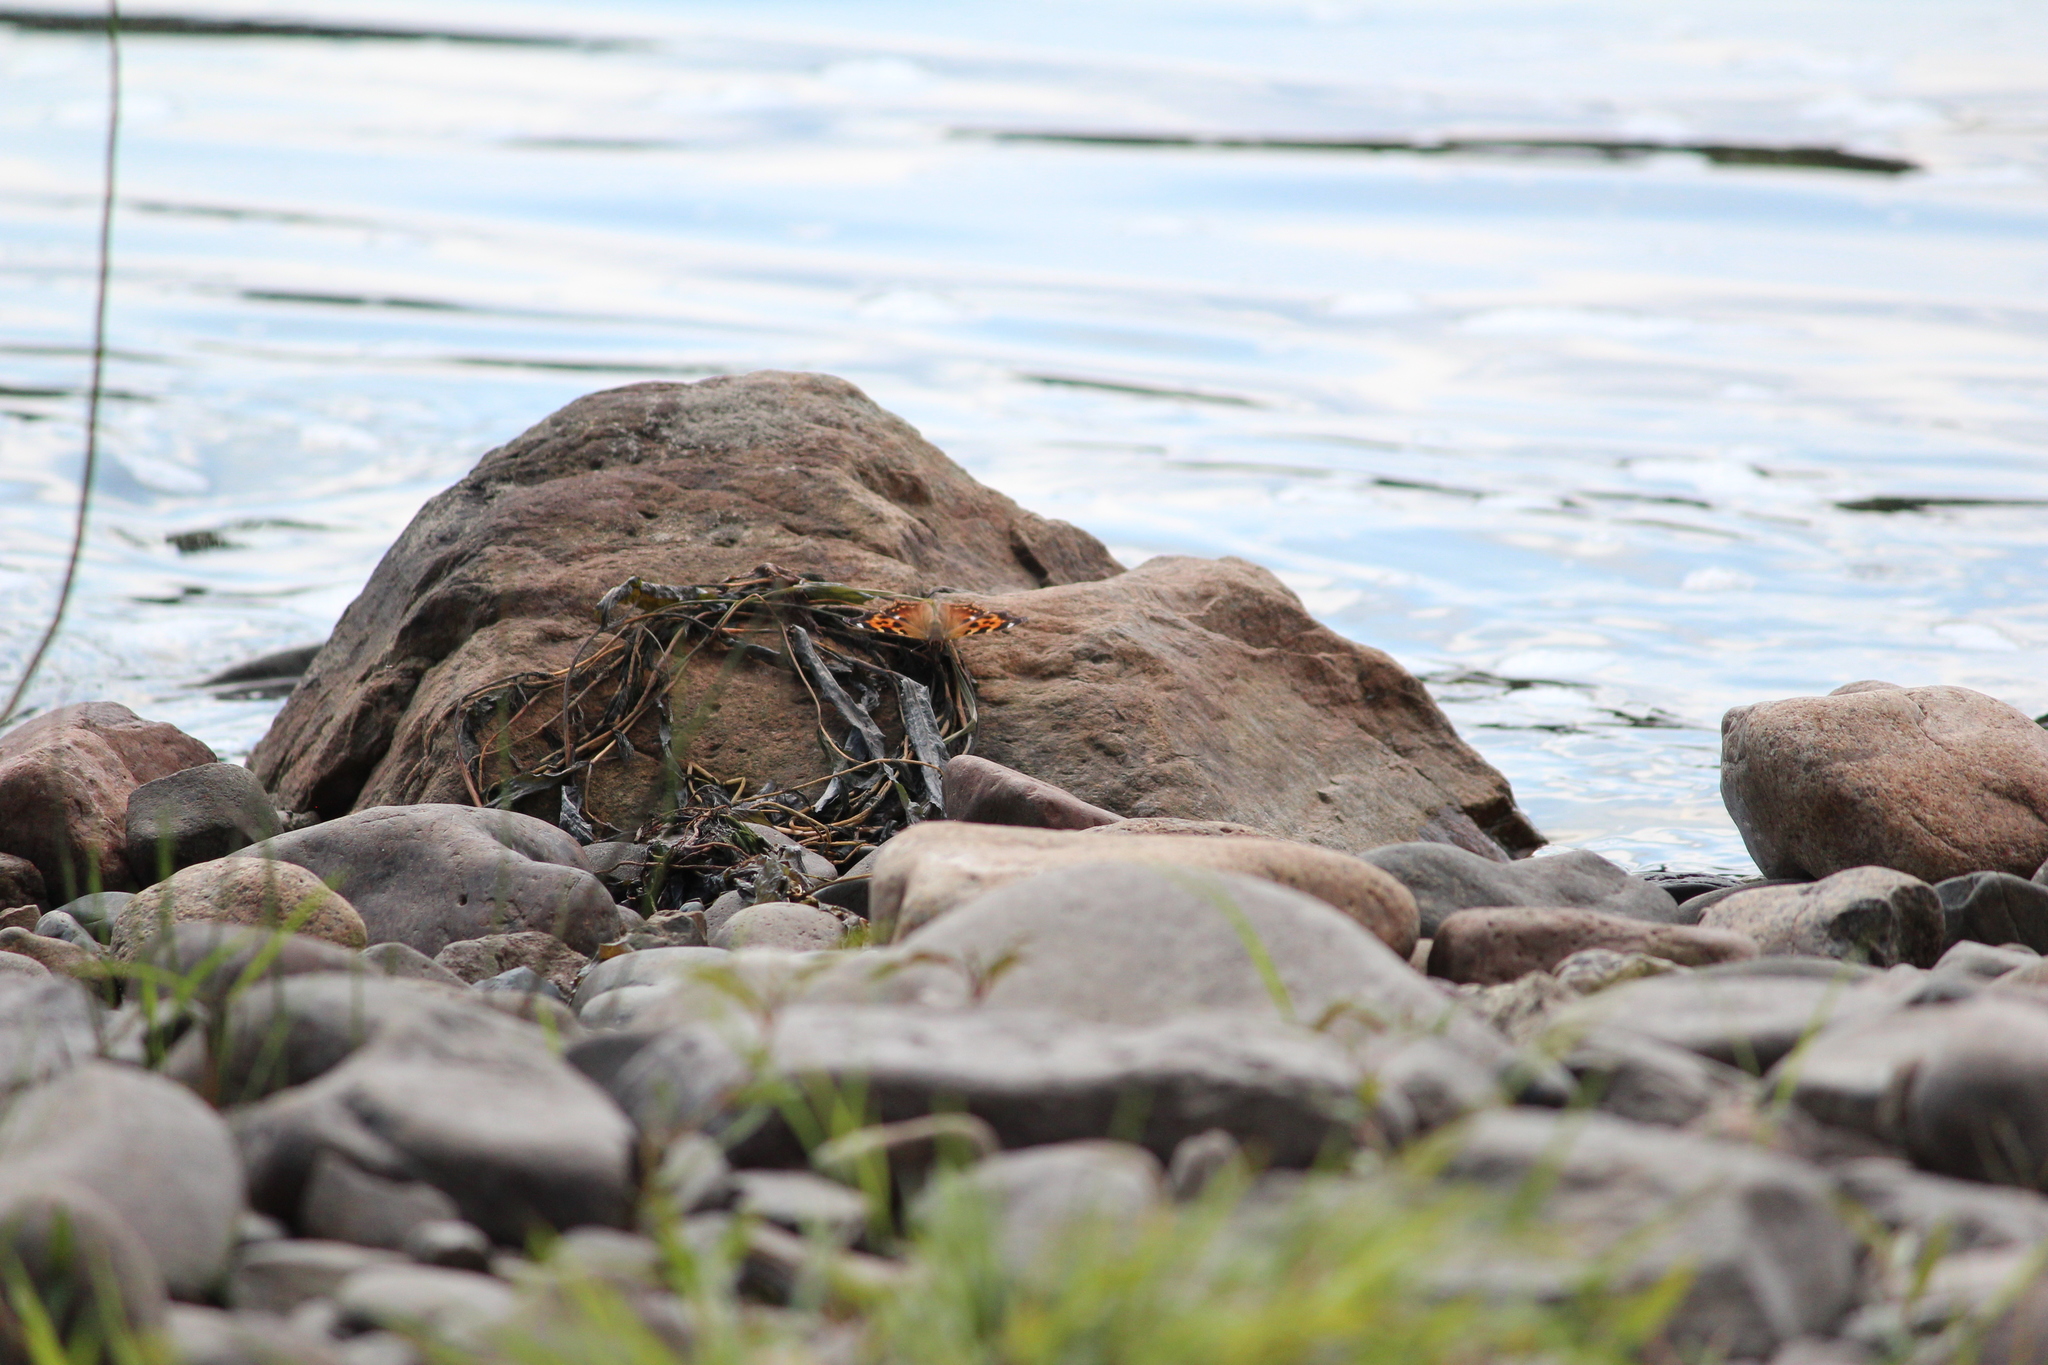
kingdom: Animalia
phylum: Arthropoda
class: Insecta
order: Lepidoptera
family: Nymphalidae
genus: Polygonia
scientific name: Polygonia c-album
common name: Comma
